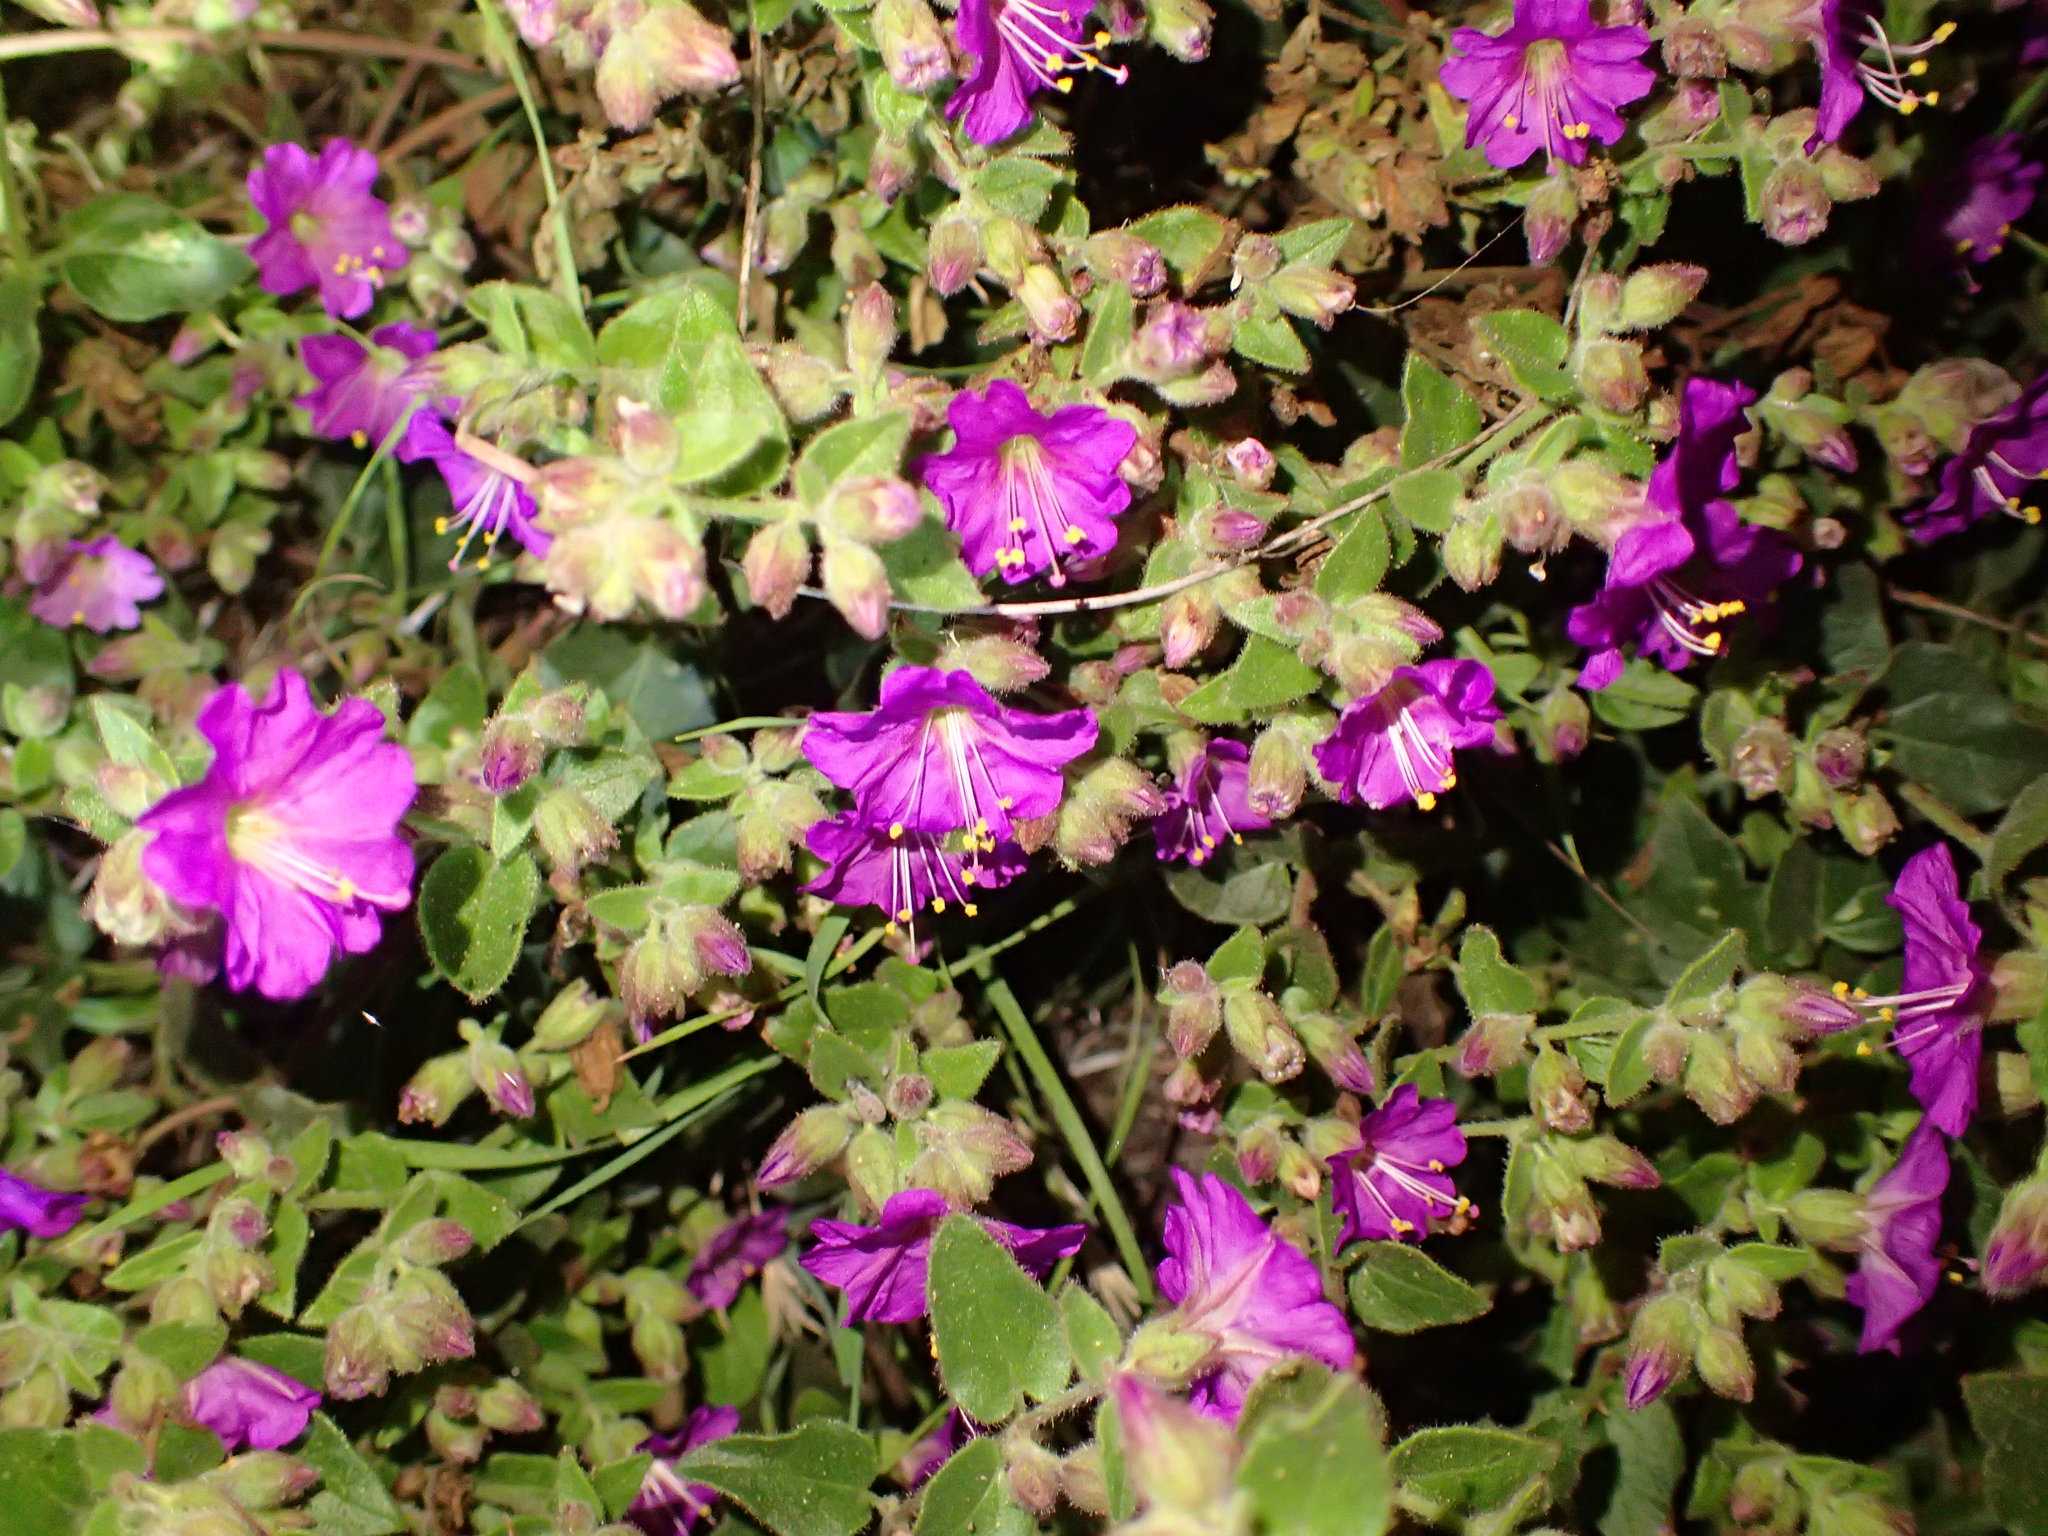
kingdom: Plantae
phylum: Tracheophyta
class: Magnoliopsida
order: Caryophyllales
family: Nyctaginaceae
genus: Mirabilis
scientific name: Mirabilis laevis
